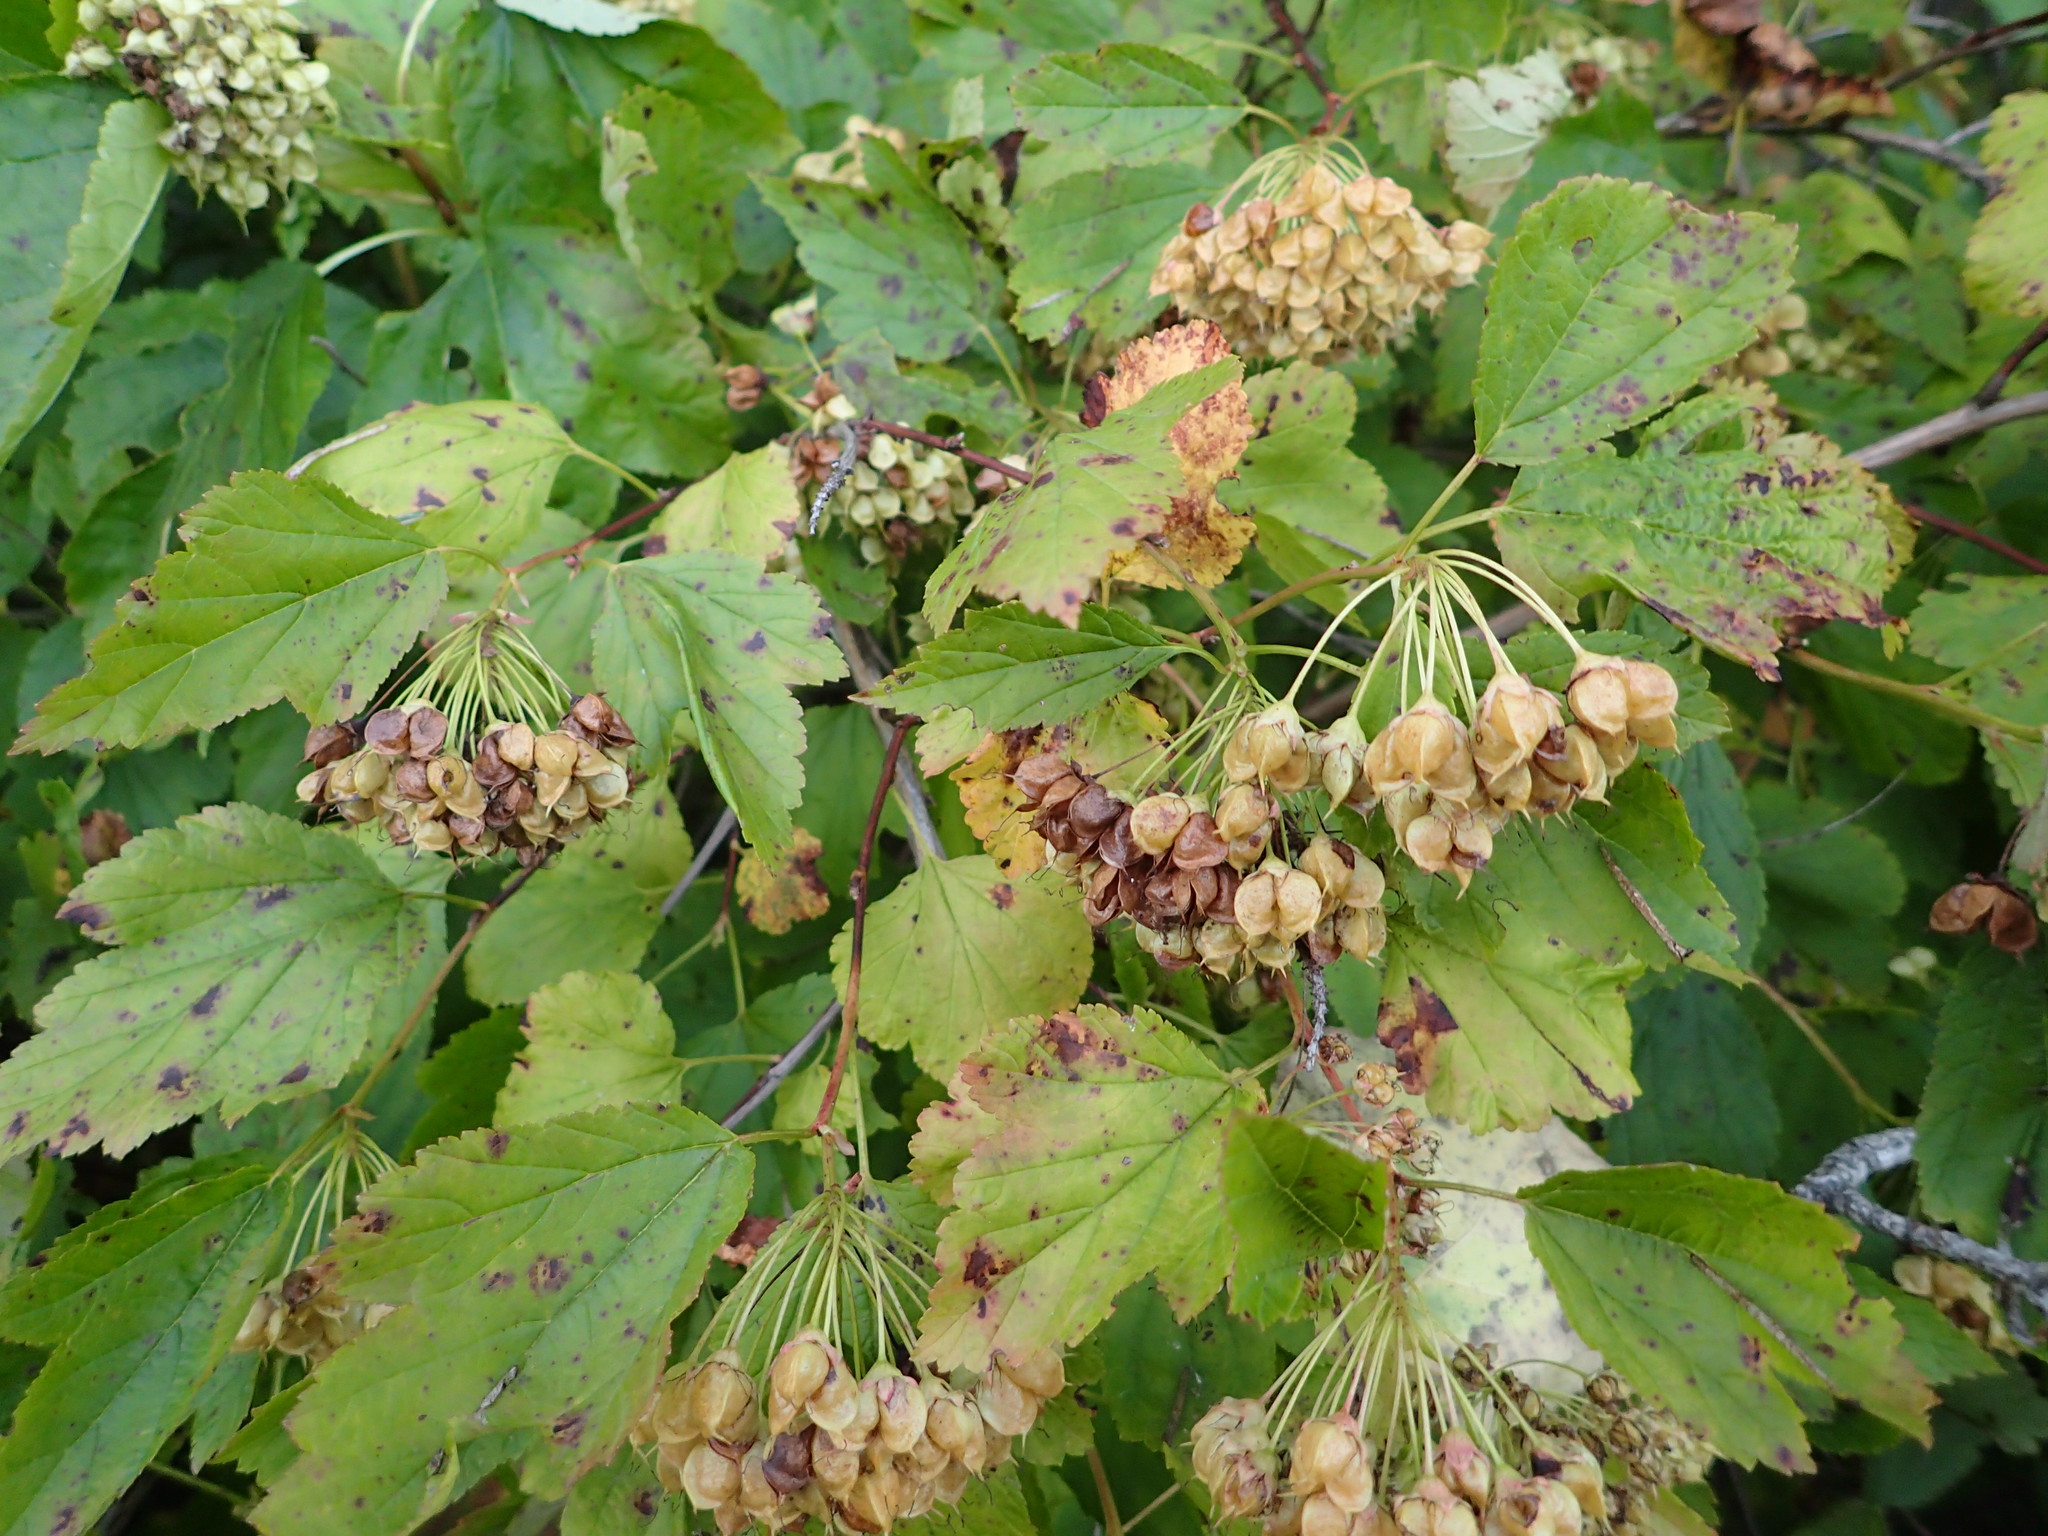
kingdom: Plantae
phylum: Tracheophyta
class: Magnoliopsida
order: Rosales
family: Rosaceae
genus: Physocarpus
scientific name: Physocarpus opulifolius
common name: Ninebark
